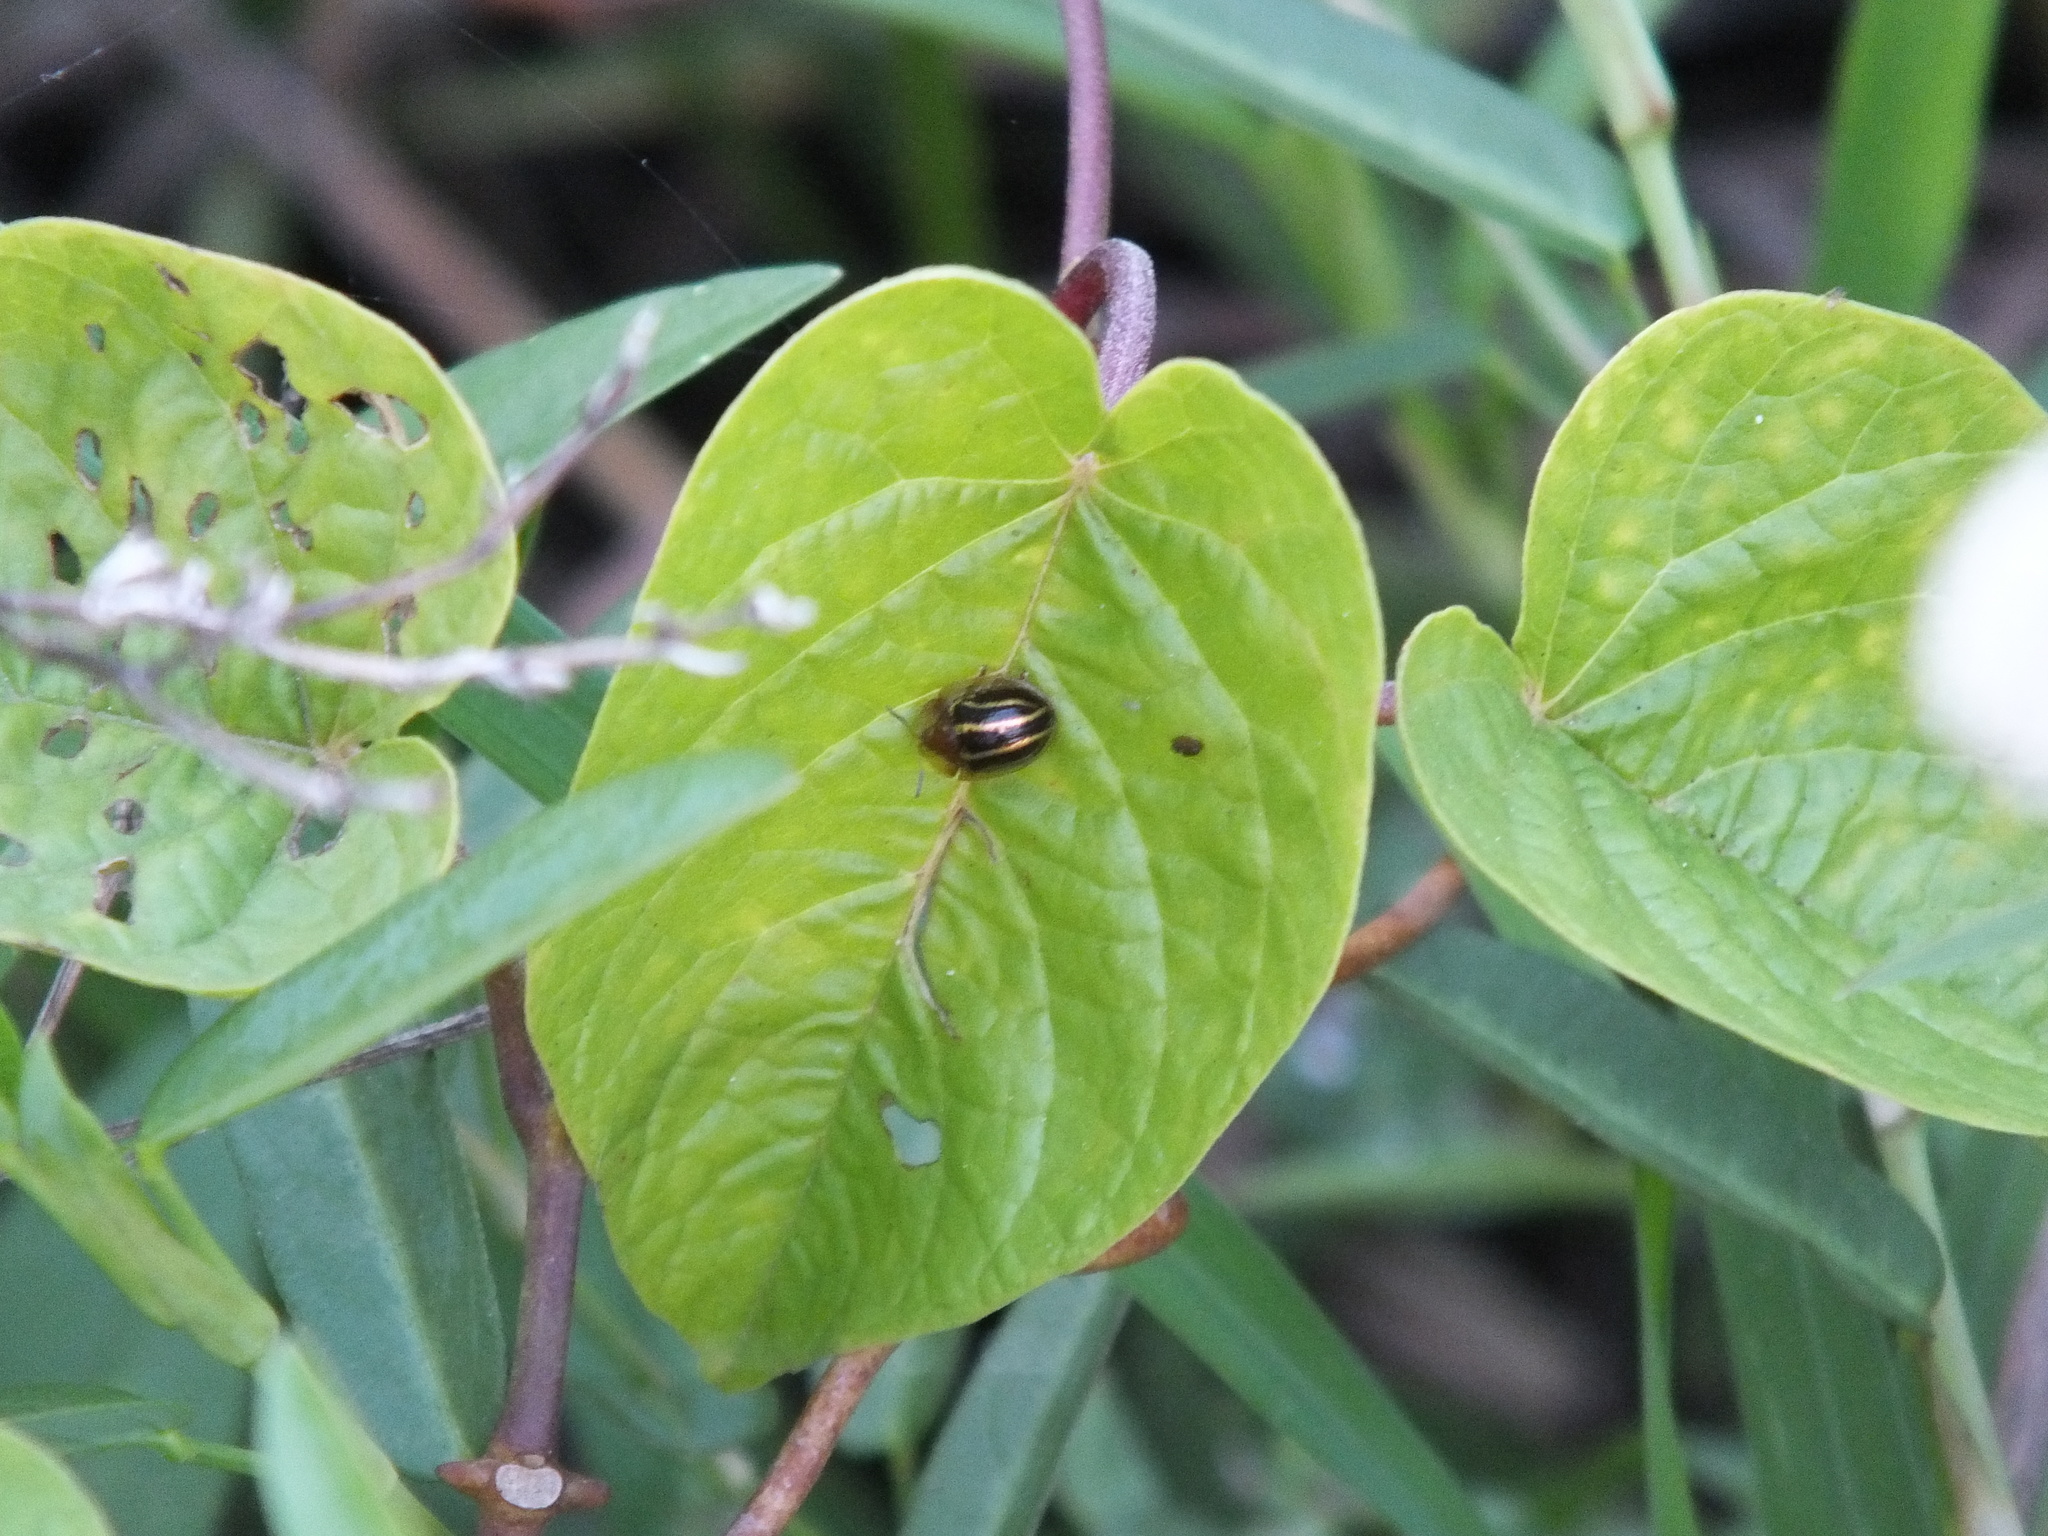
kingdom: Animalia
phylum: Arthropoda
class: Insecta
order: Coleoptera
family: Chrysomelidae
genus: Agroiconota
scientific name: Agroiconota propinqua
